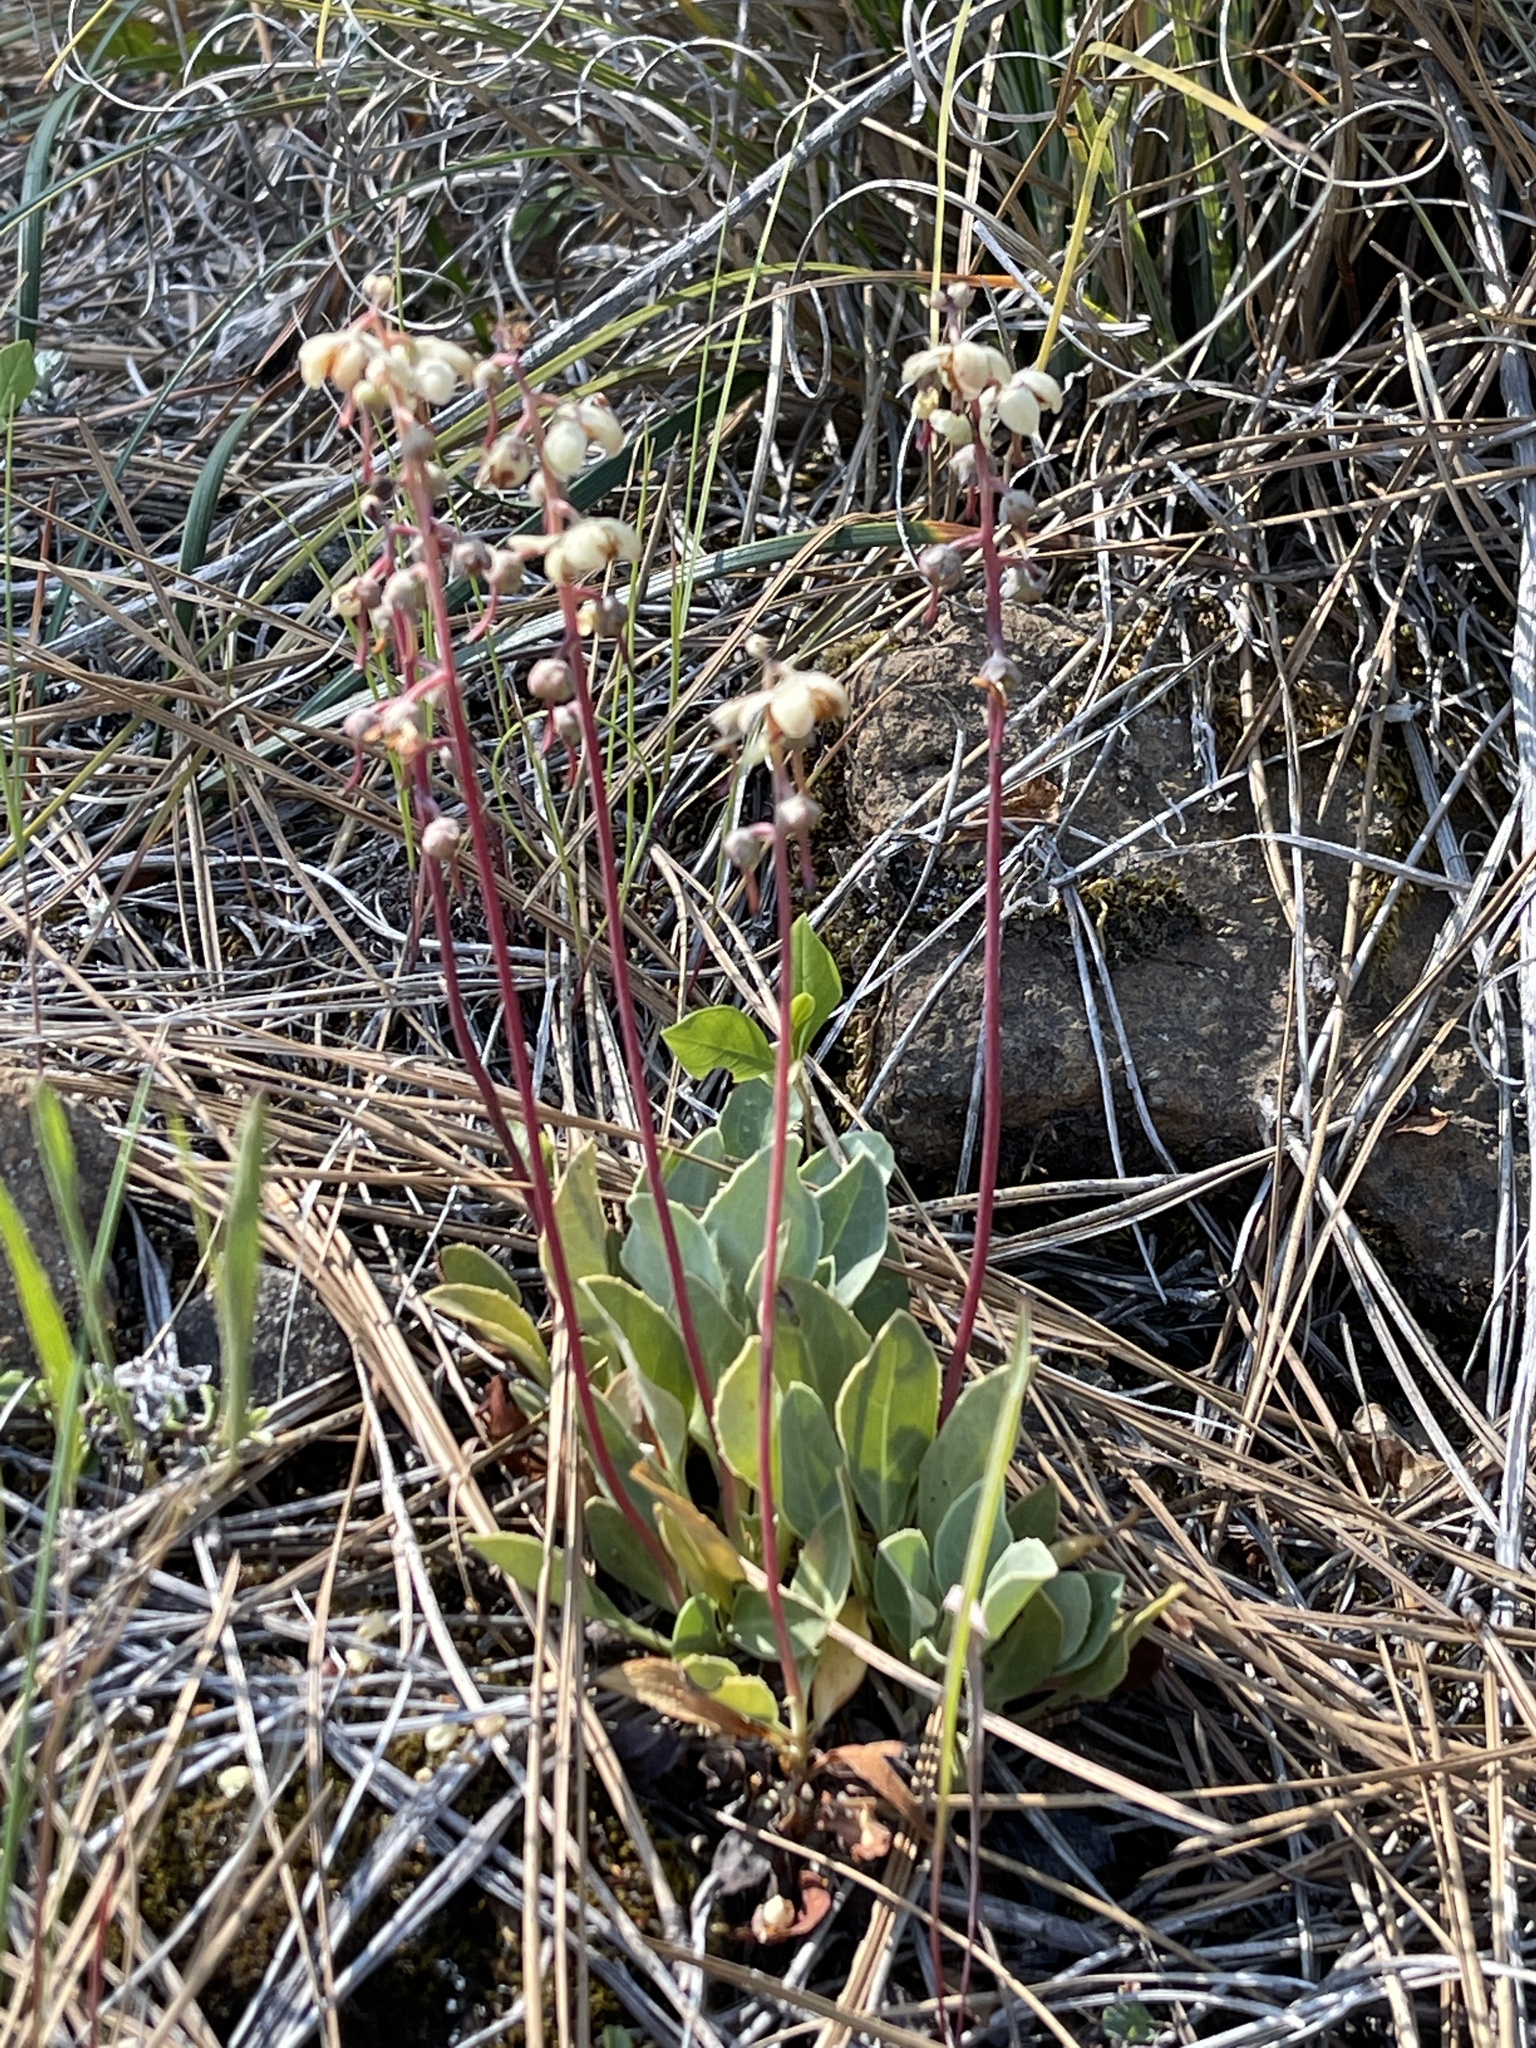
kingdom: Plantae
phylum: Tracheophyta
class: Magnoliopsida
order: Ericales
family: Ericaceae
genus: Pyrola
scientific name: Pyrola dentata
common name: Tooth-leaved wintergreen
